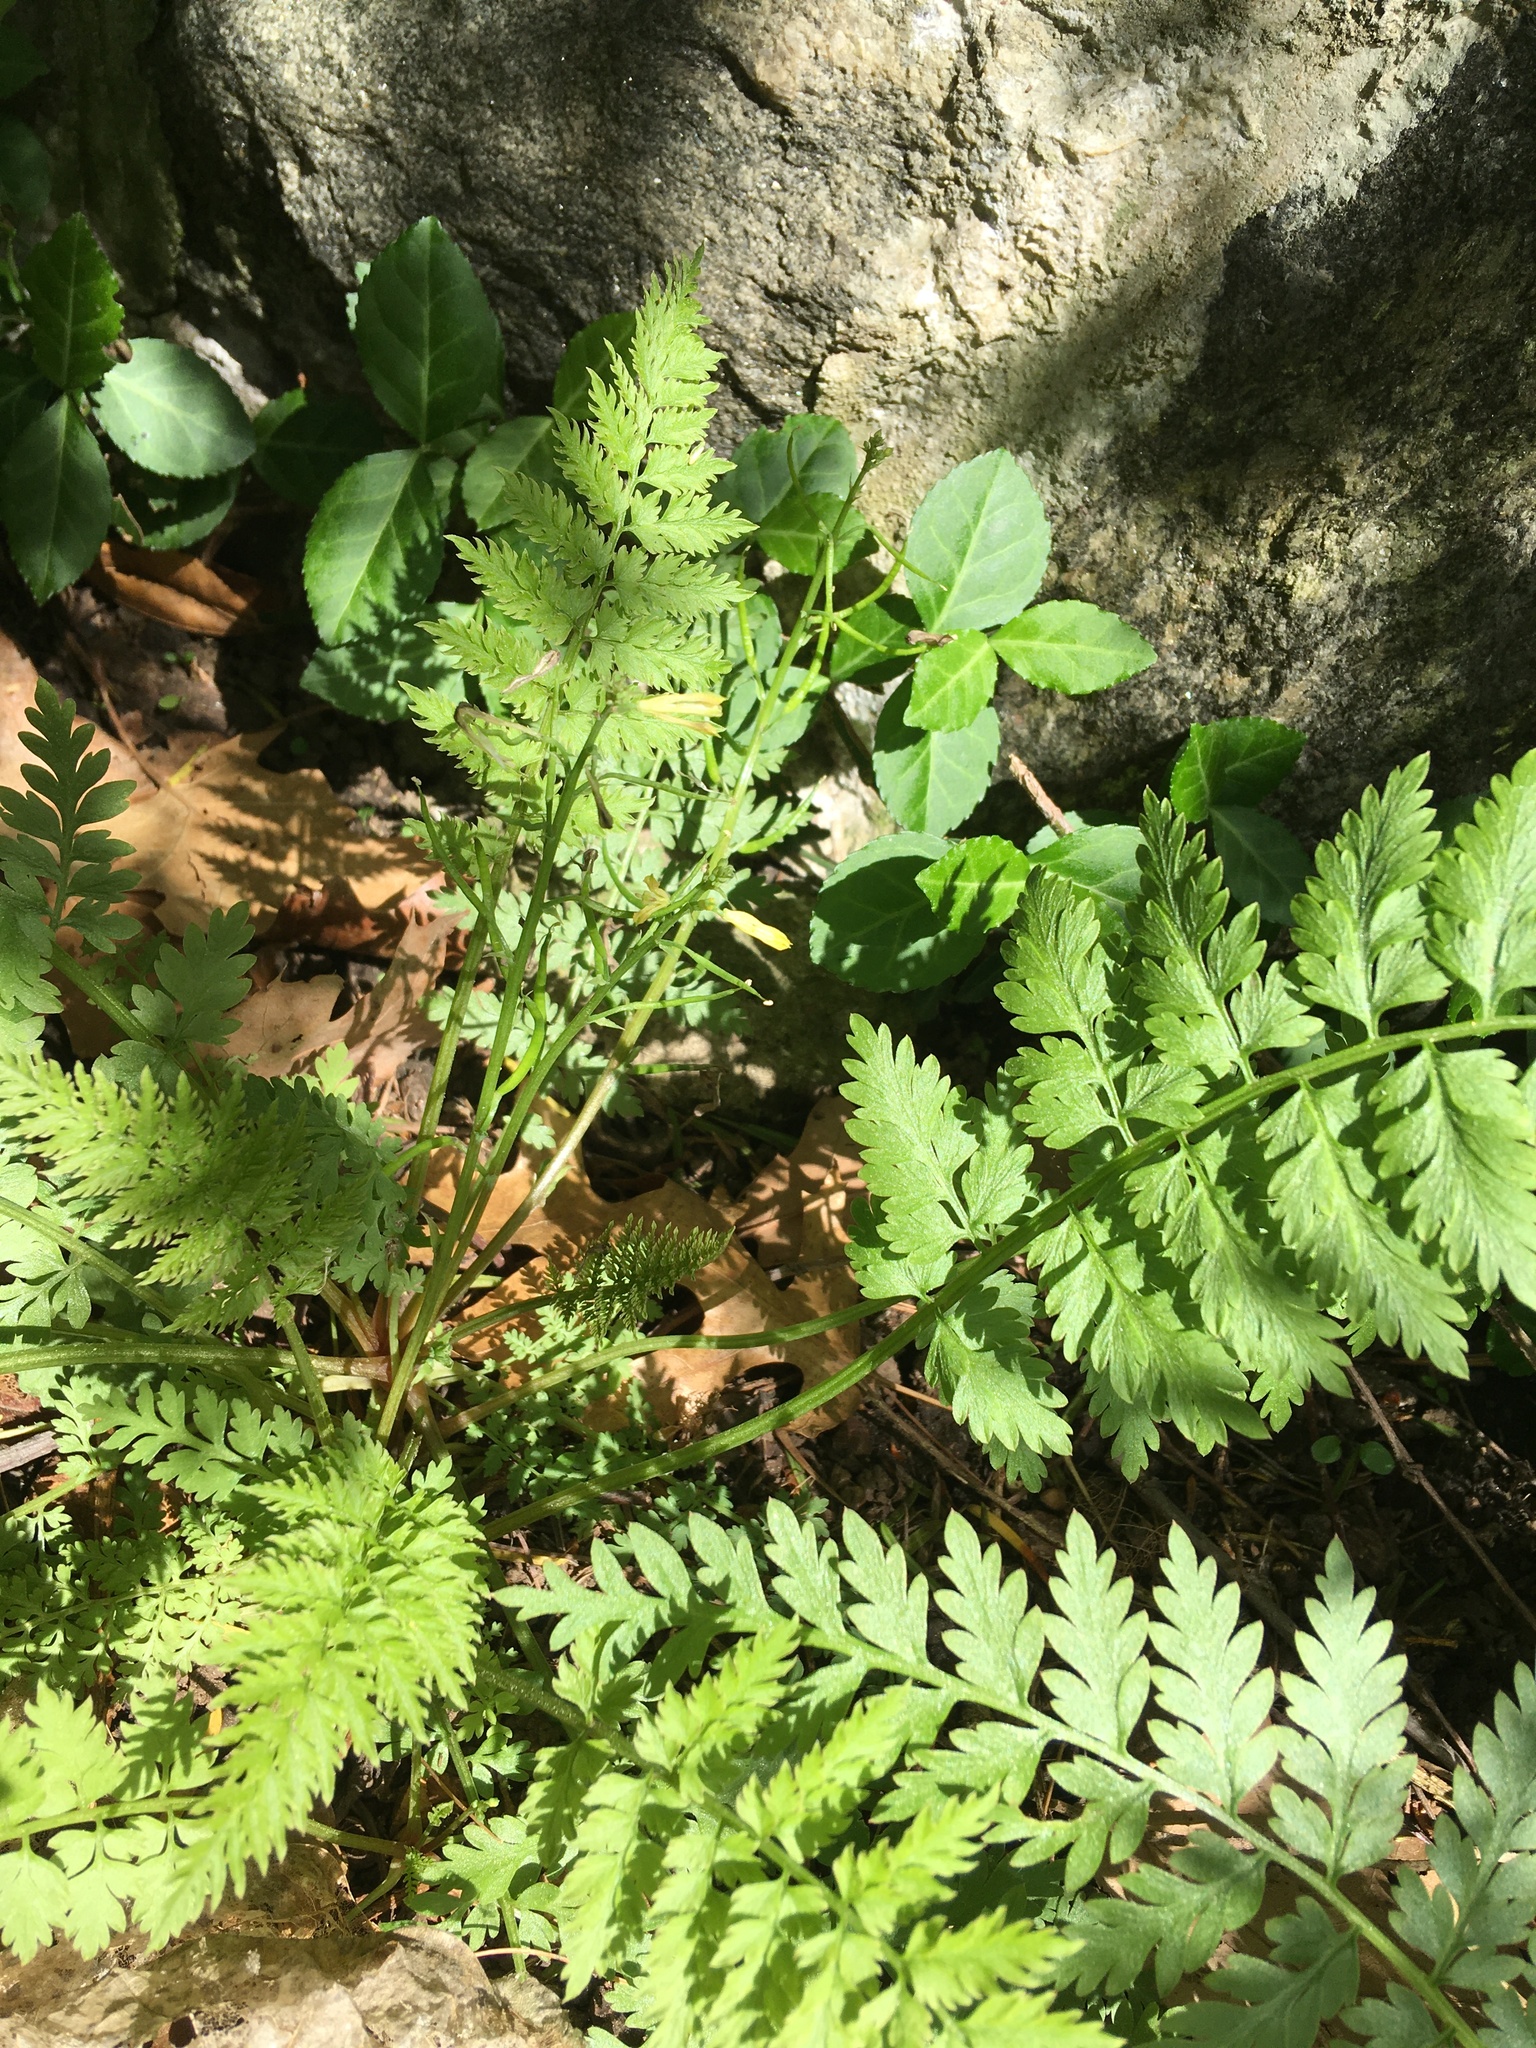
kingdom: Plantae
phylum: Tracheophyta
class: Magnoliopsida
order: Ranunculales
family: Papaveraceae
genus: Corydalis
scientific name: Corydalis cheilanthifolia
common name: Fern-leaved corydalis
